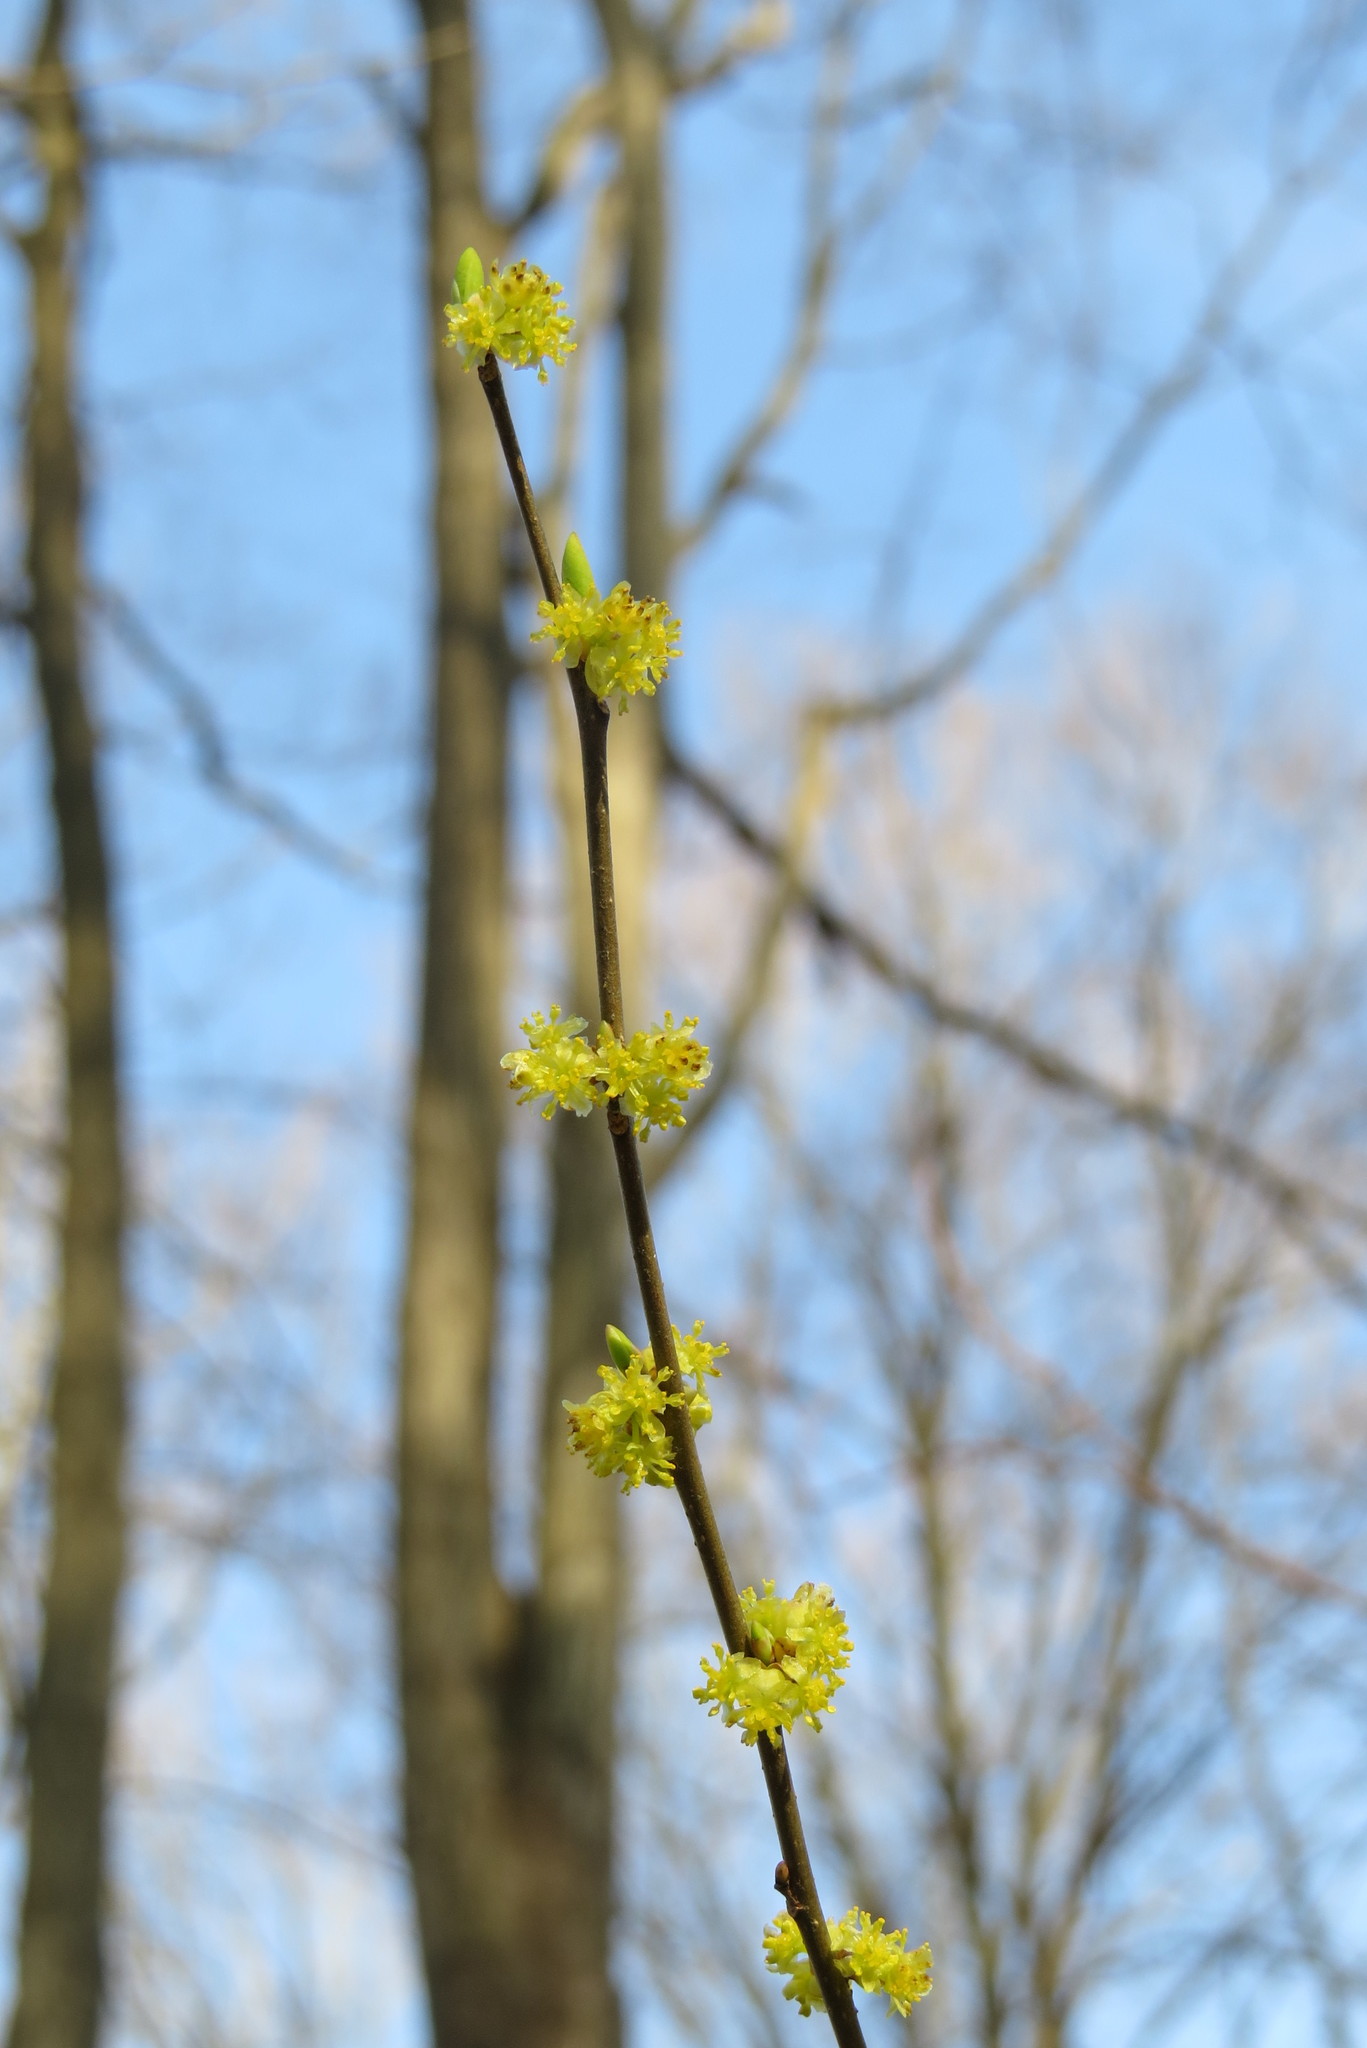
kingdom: Plantae
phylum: Tracheophyta
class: Magnoliopsida
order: Laurales
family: Lauraceae
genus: Lindera
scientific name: Lindera benzoin
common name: Spicebush
